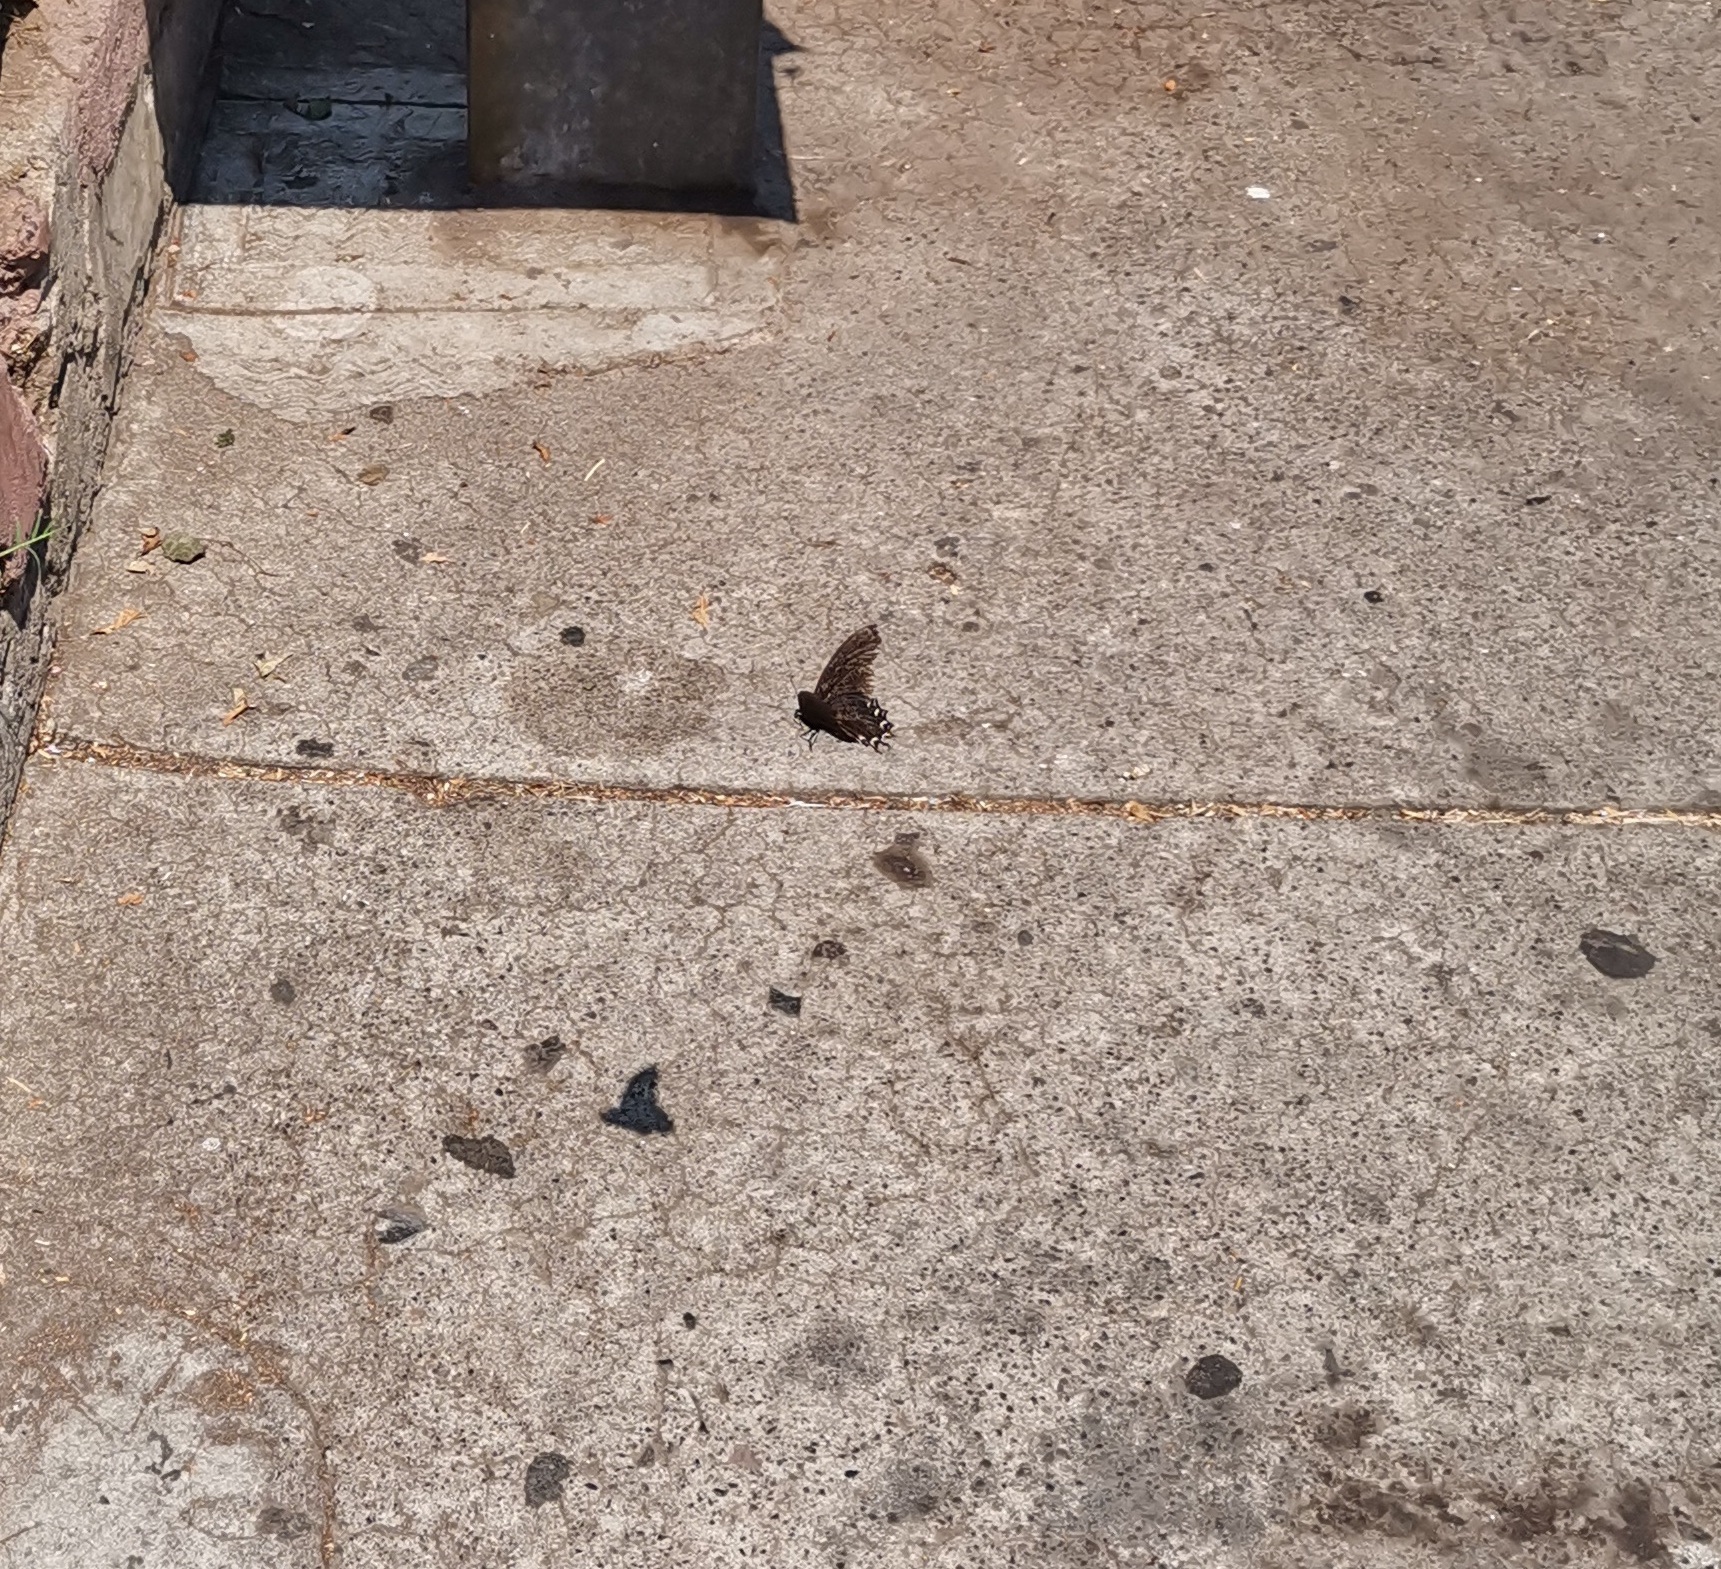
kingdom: Animalia
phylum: Arthropoda
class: Insecta
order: Lepidoptera
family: Papilionidae
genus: Mimoides
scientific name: Mimoides thymbraeus
